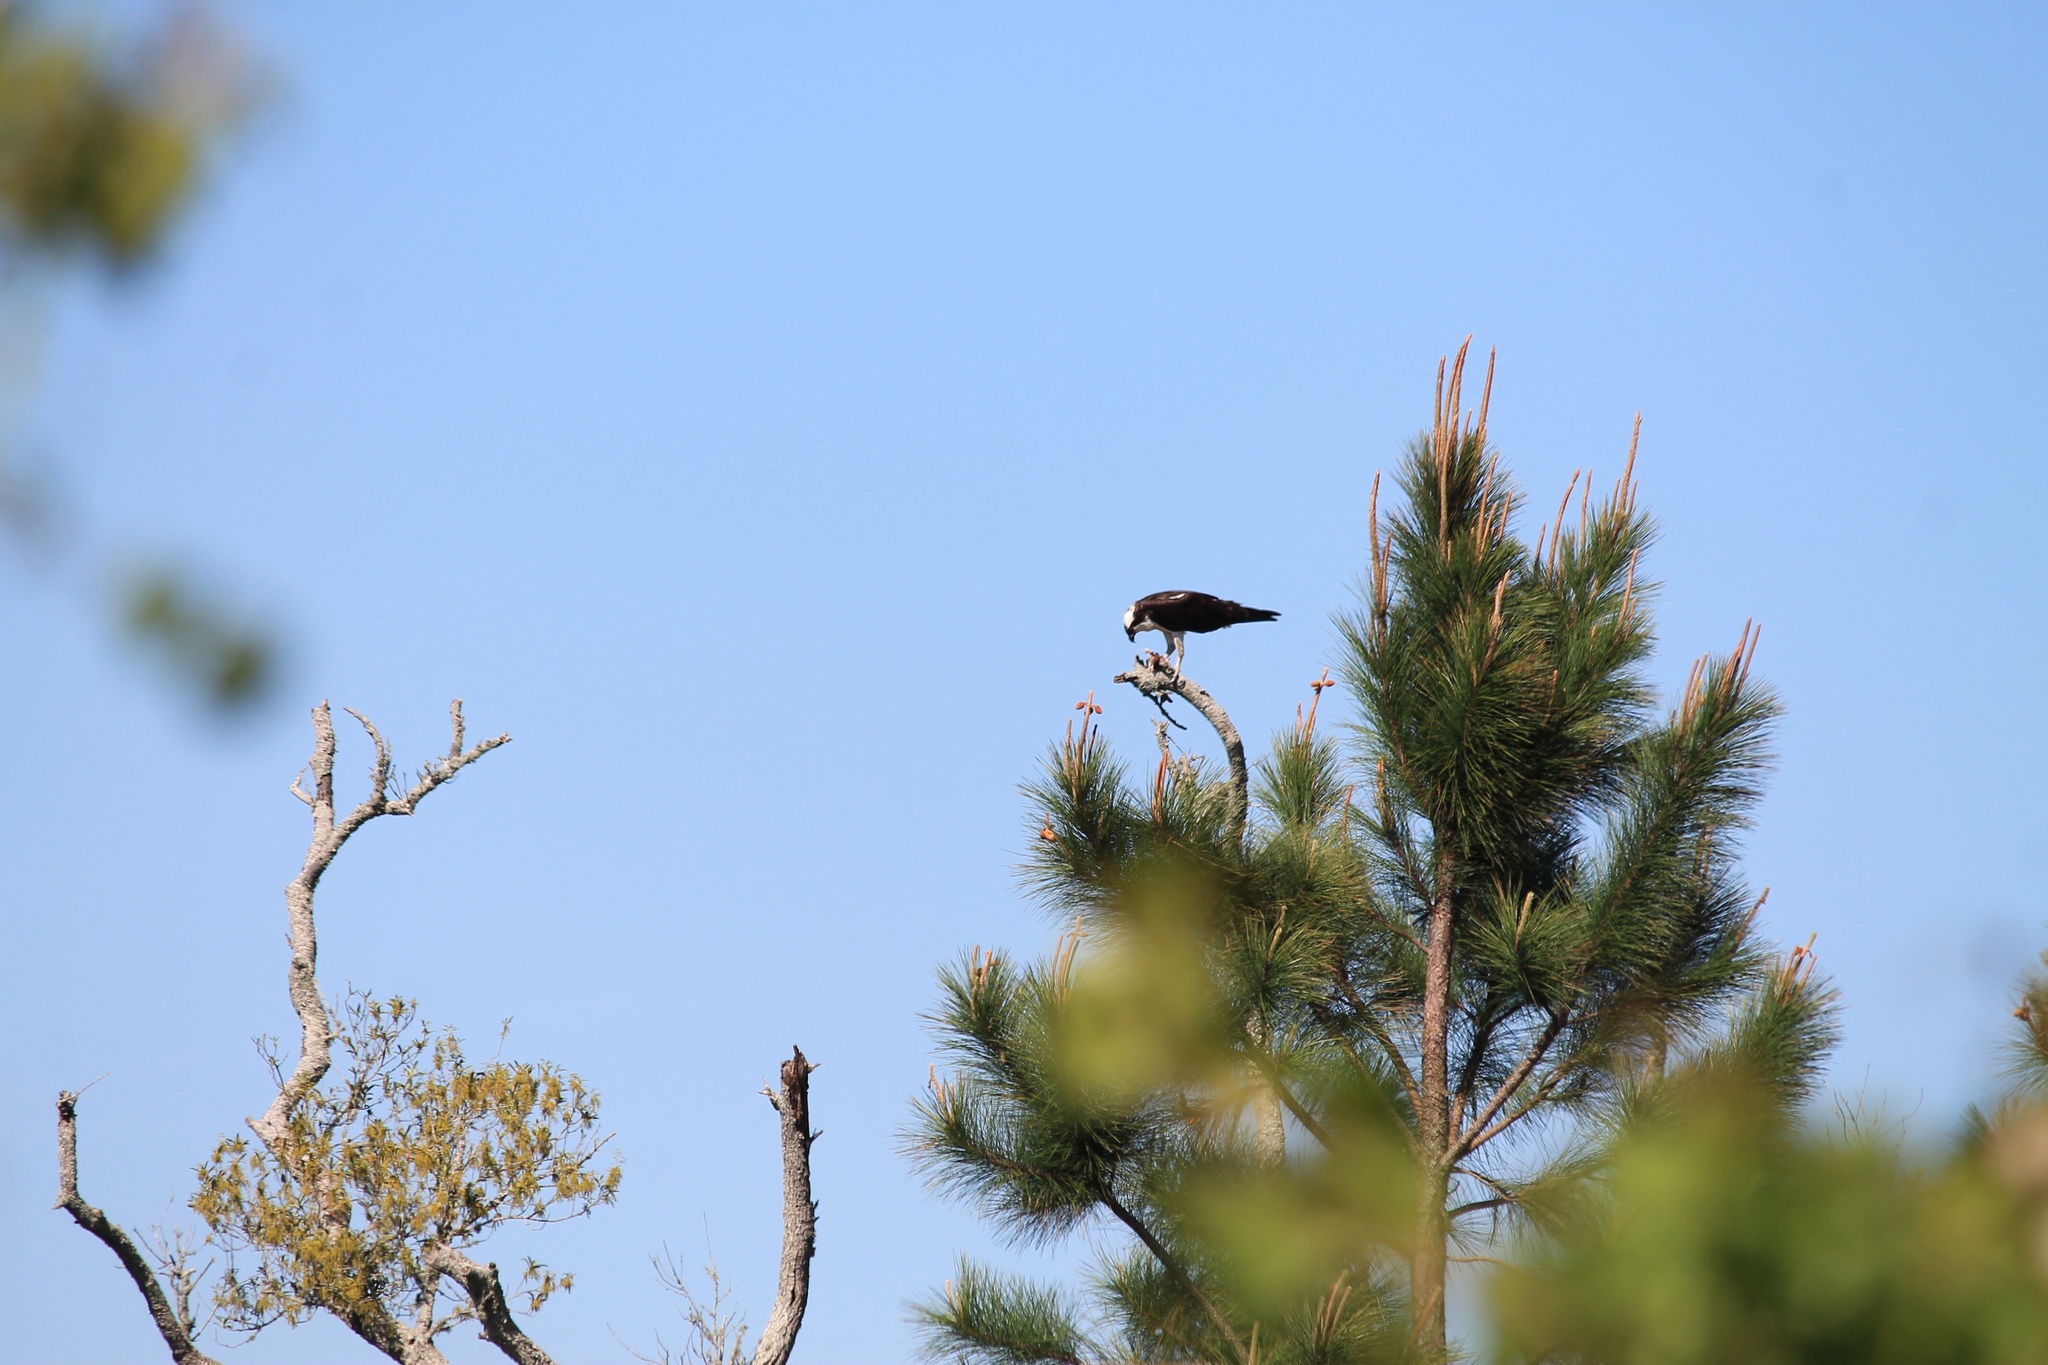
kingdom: Animalia
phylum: Chordata
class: Aves
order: Accipitriformes
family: Pandionidae
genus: Pandion
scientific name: Pandion haliaetus
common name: Osprey
